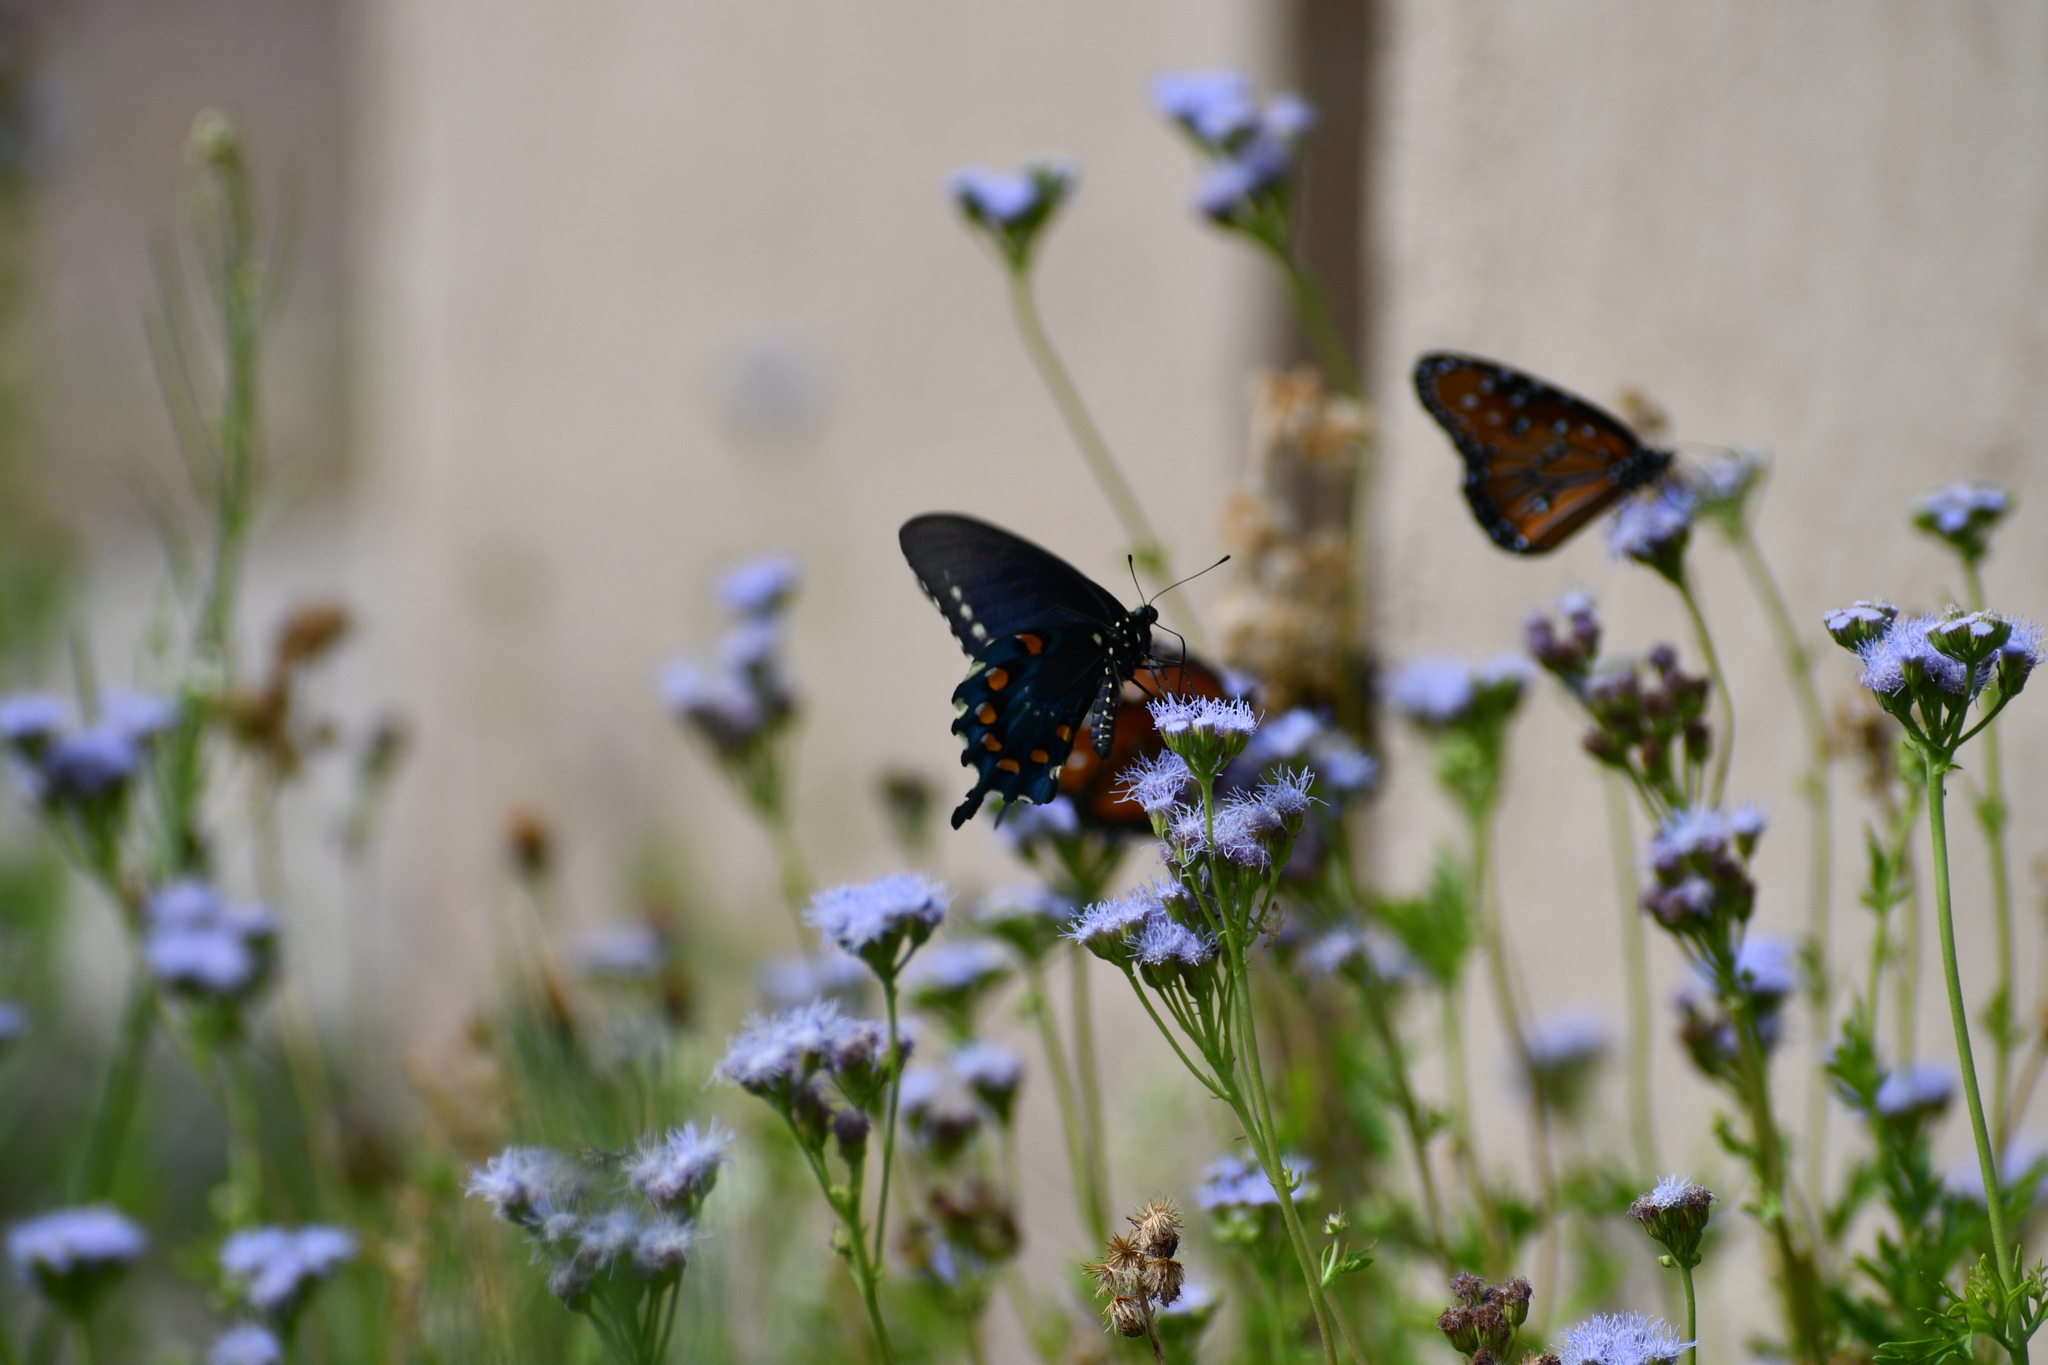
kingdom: Animalia
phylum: Arthropoda
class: Insecta
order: Lepidoptera
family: Papilionidae
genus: Battus
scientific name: Battus philenor
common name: Pipevine swallowtail
